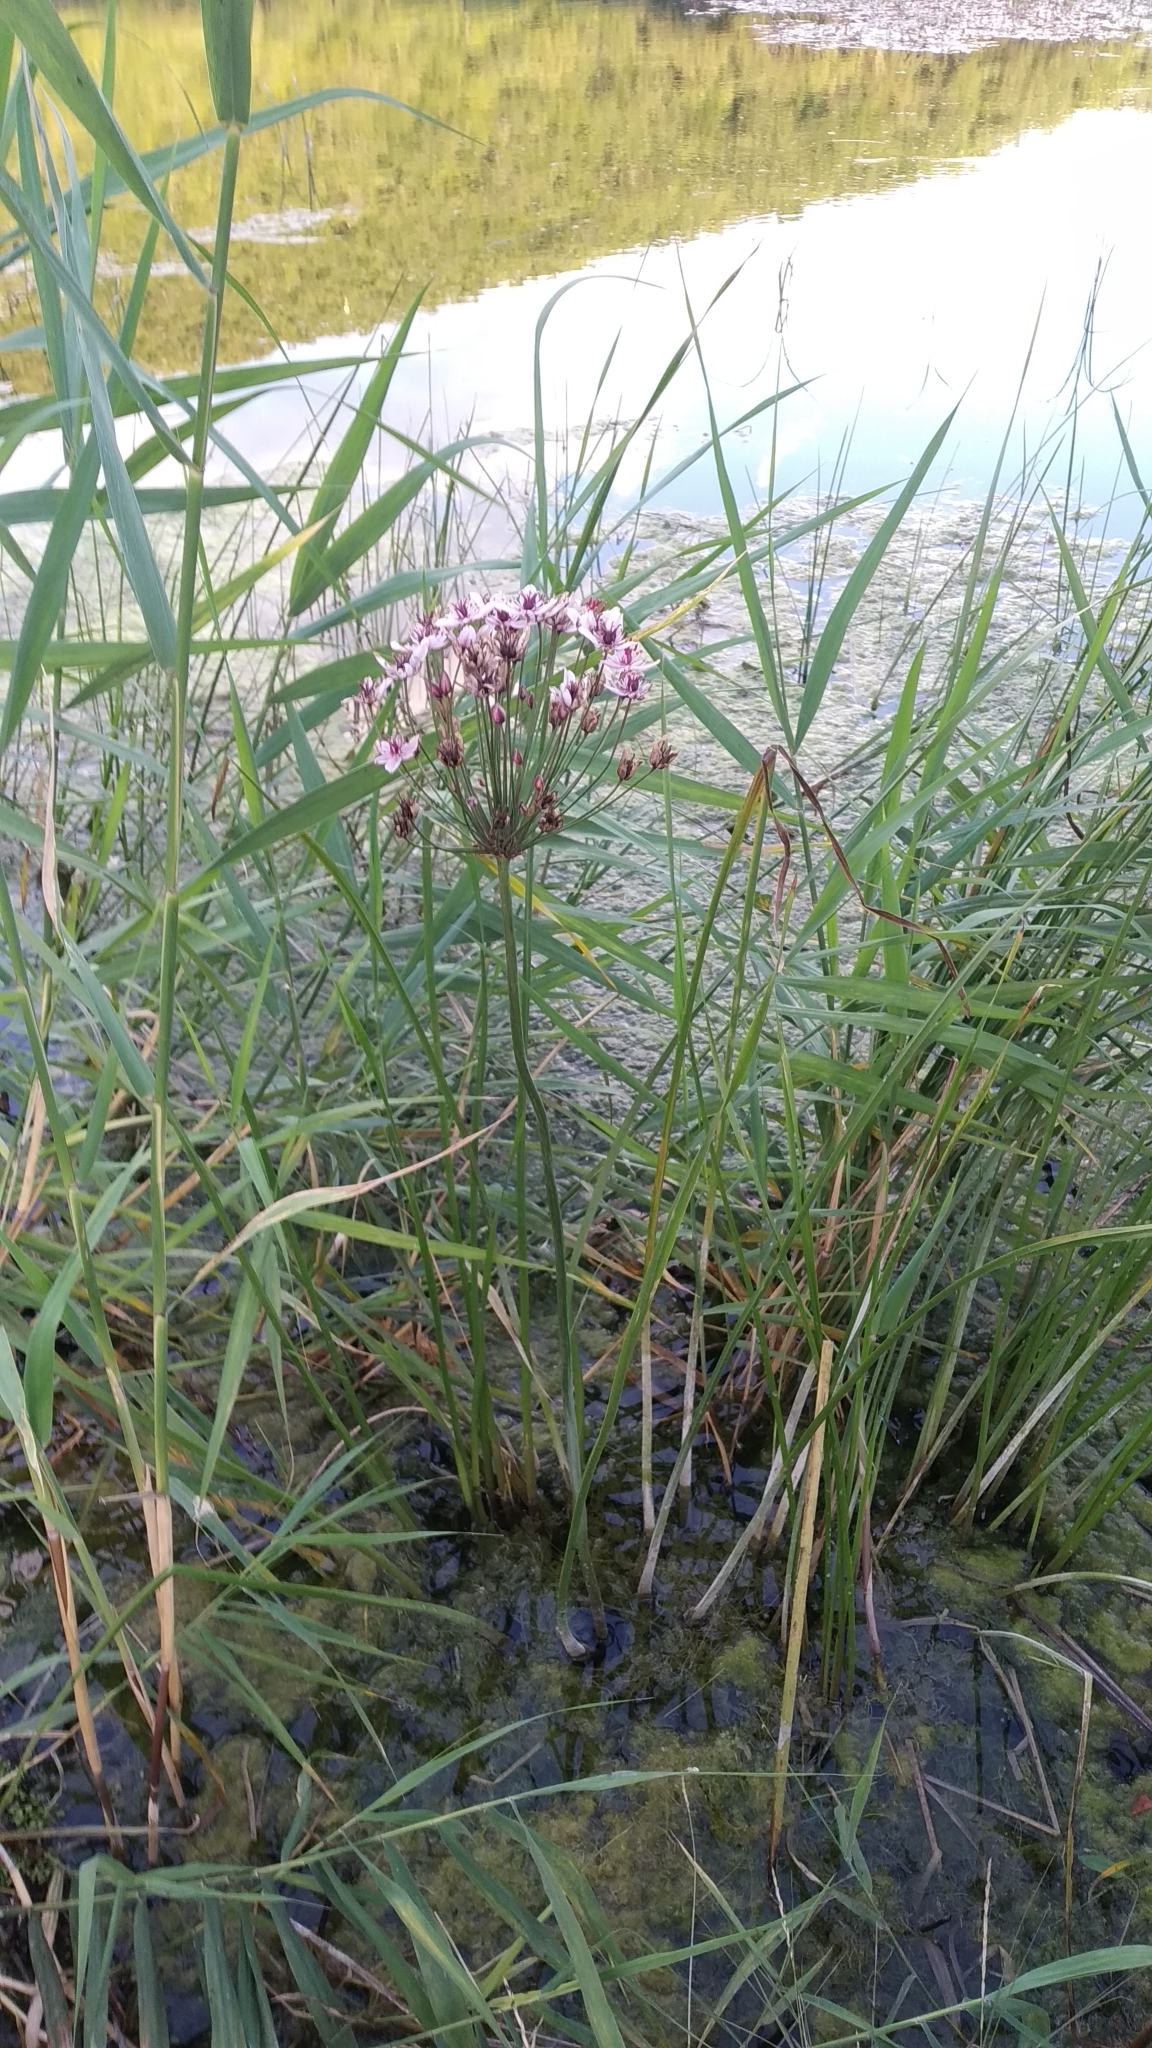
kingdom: Plantae
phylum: Tracheophyta
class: Liliopsida
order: Alismatales
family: Butomaceae
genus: Butomus
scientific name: Butomus umbellatus
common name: Flowering-rush
